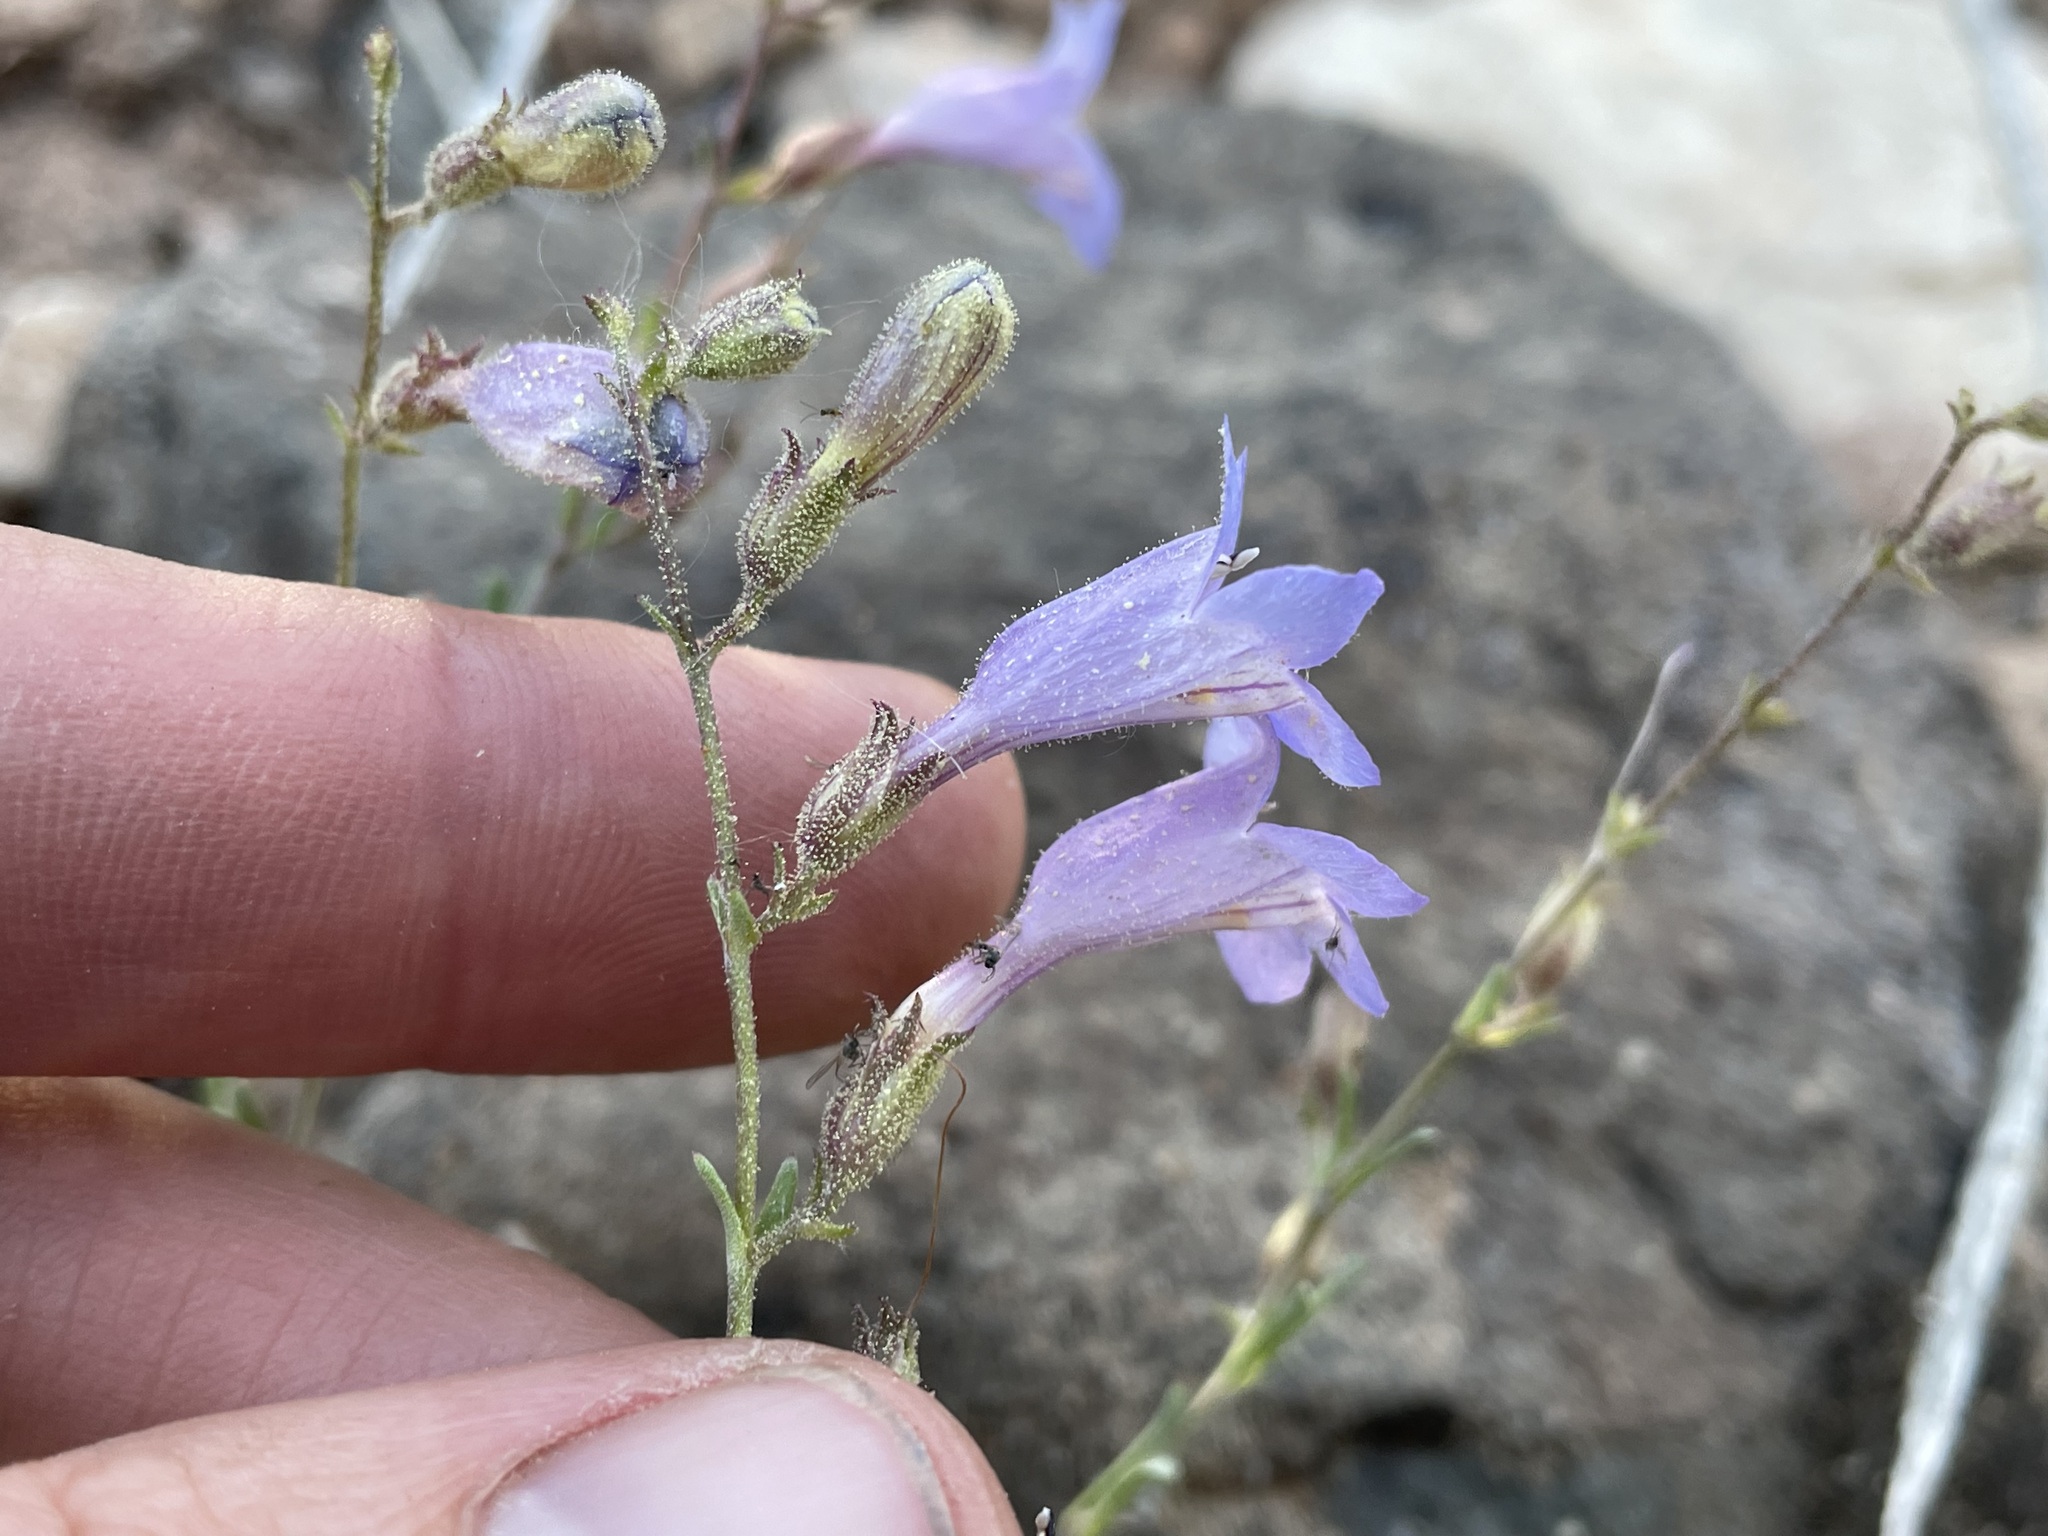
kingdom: Plantae
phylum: Tracheophyta
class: Magnoliopsida
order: Lamiales
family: Plantaginaceae
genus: Penstemon
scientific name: Penstemon linarioides
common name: Siler's penstemon
